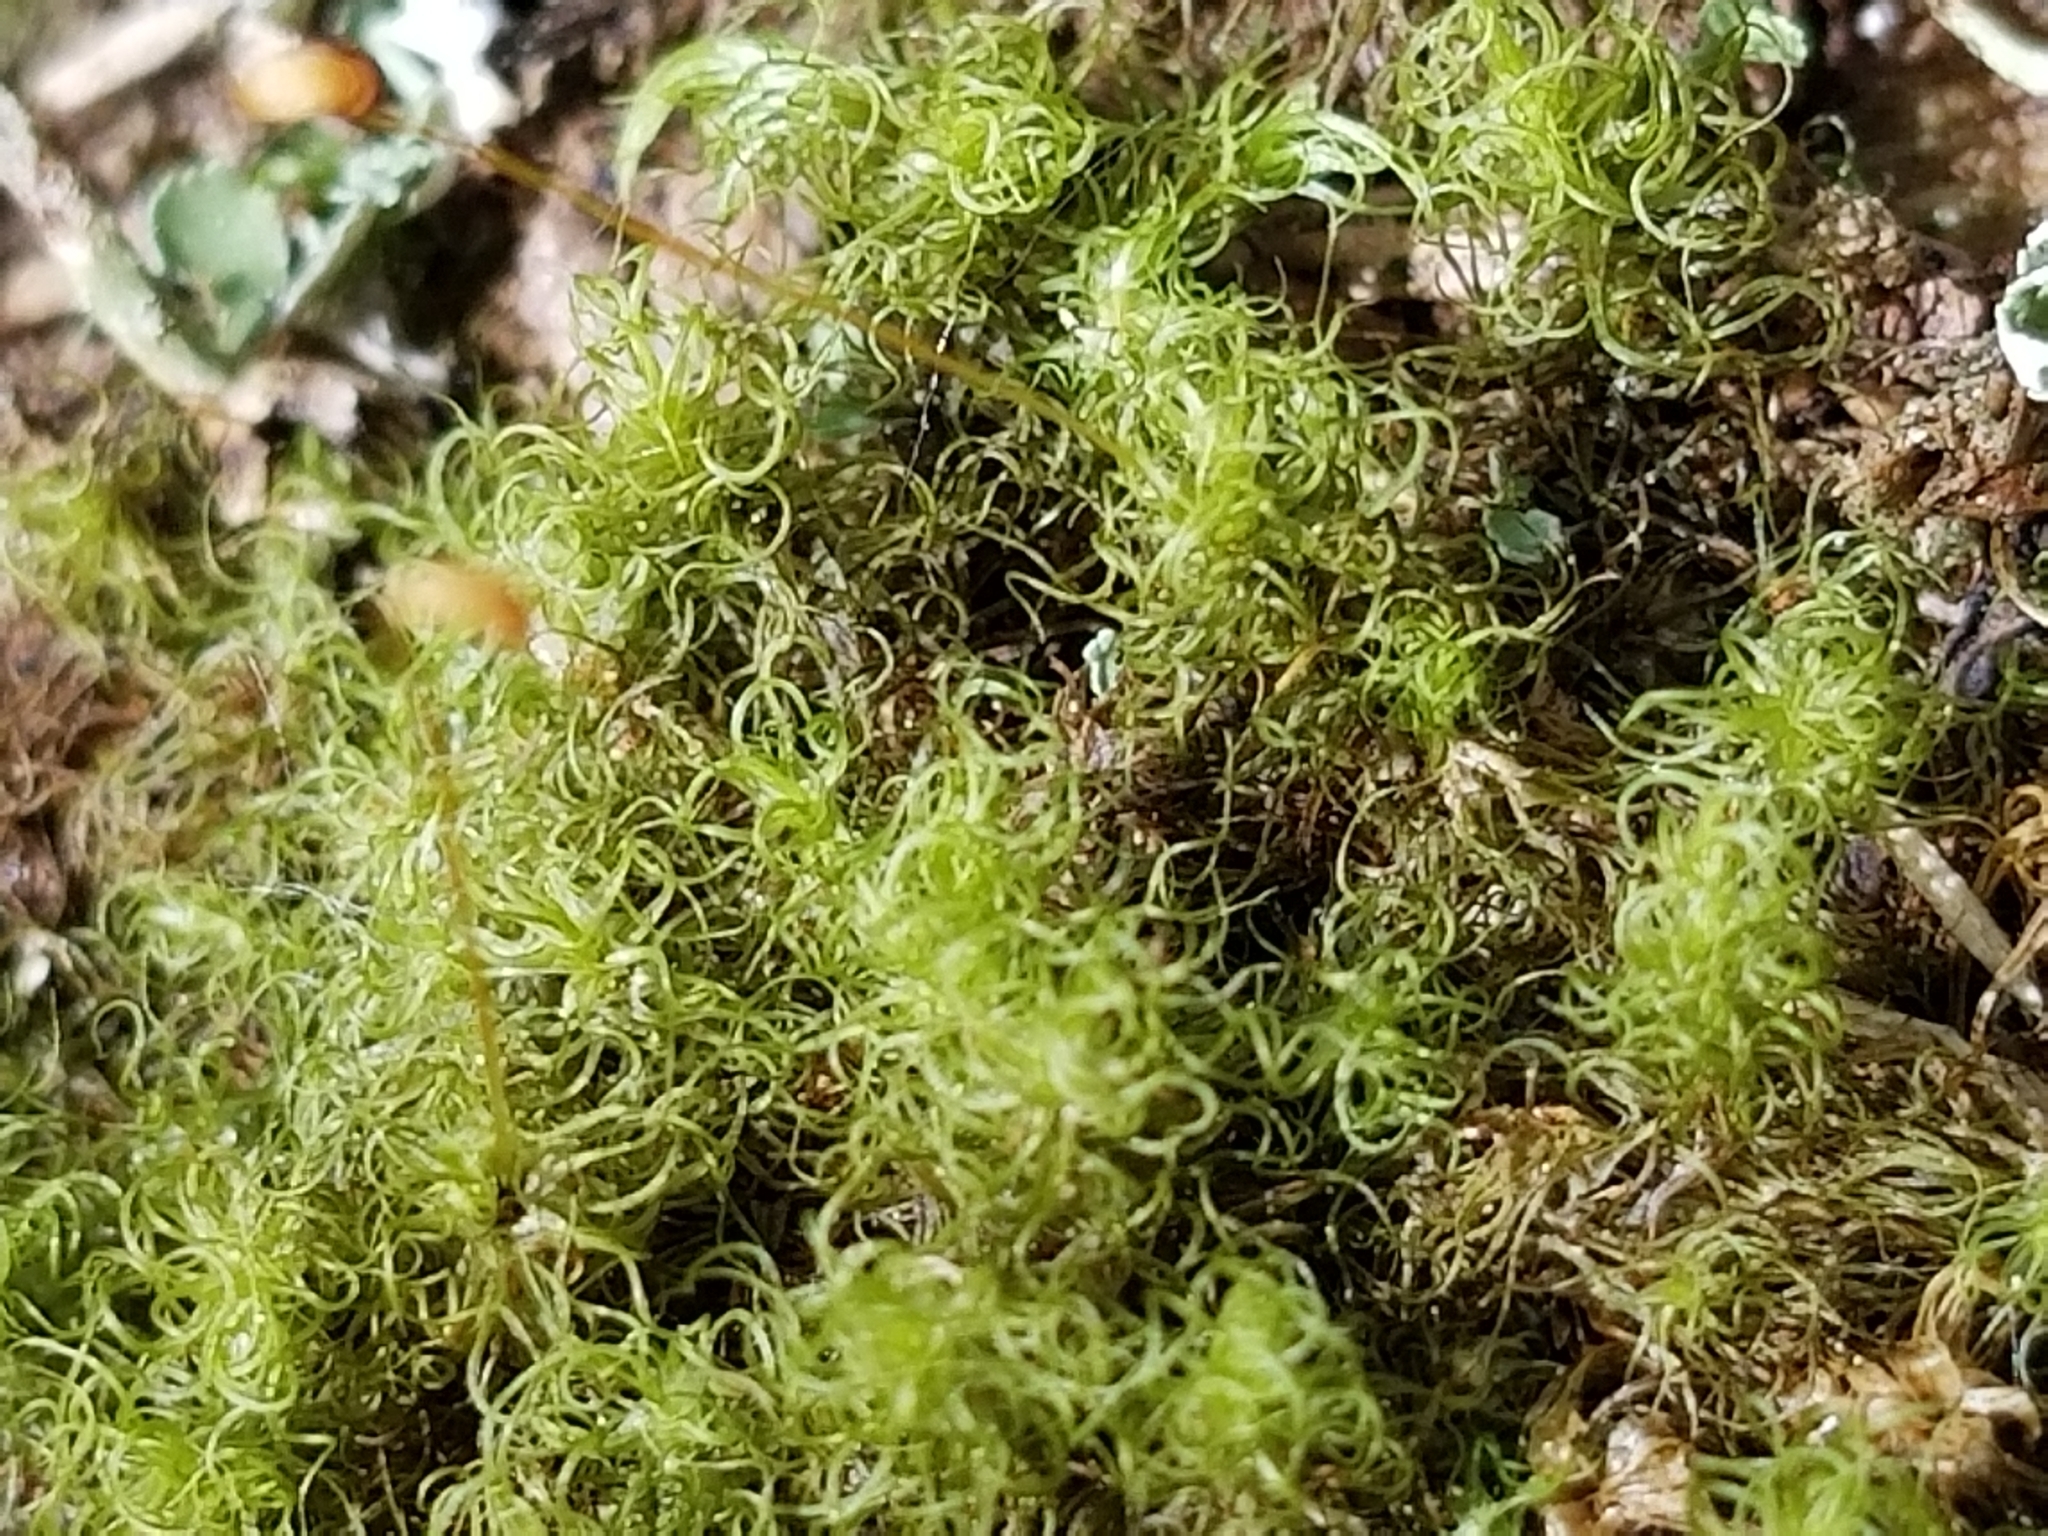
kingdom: Plantae
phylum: Bryophyta
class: Bryopsida
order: Dicranales
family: Rhabdoweisiaceae
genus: Brideliella
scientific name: Brideliella wahlenbergii
